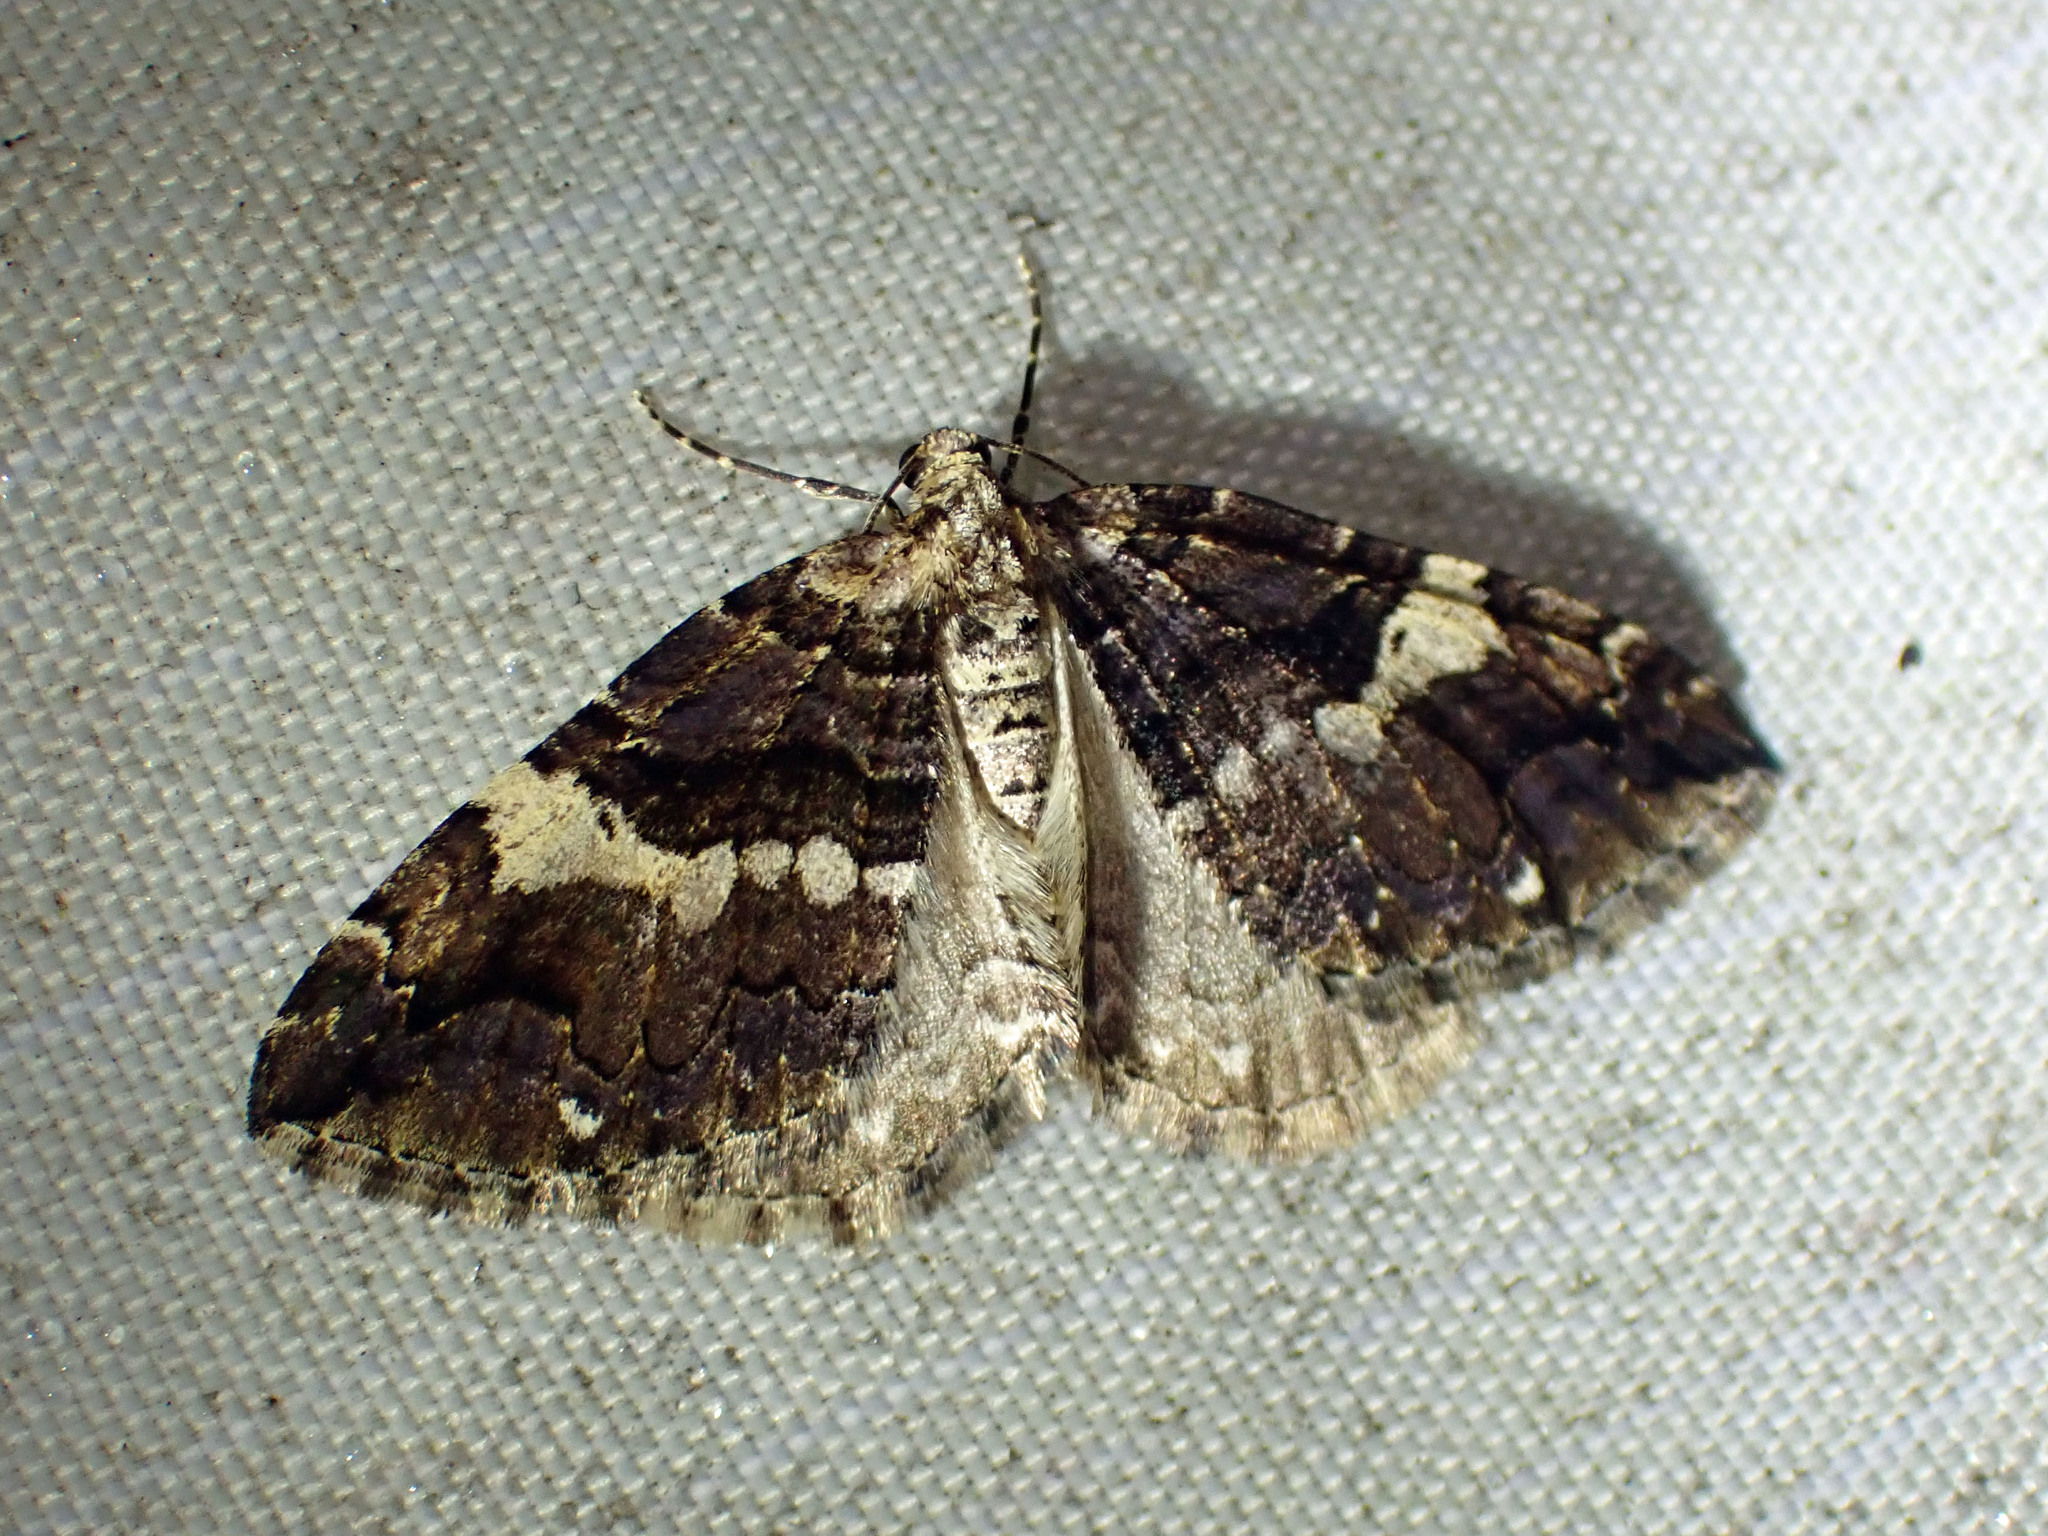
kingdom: Animalia
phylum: Arthropoda
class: Insecta
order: Lepidoptera
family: Geometridae
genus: Anticlea
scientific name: Anticlea vasiliata
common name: Variable carpet
